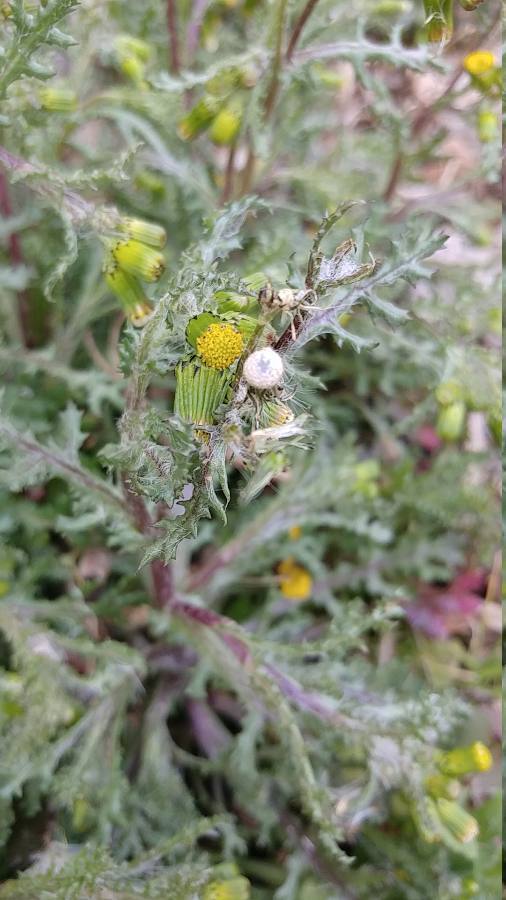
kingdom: Plantae
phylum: Tracheophyta
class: Magnoliopsida
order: Asterales
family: Asteraceae
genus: Senecio
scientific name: Senecio vulgaris
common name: Old-man-in-the-spring
